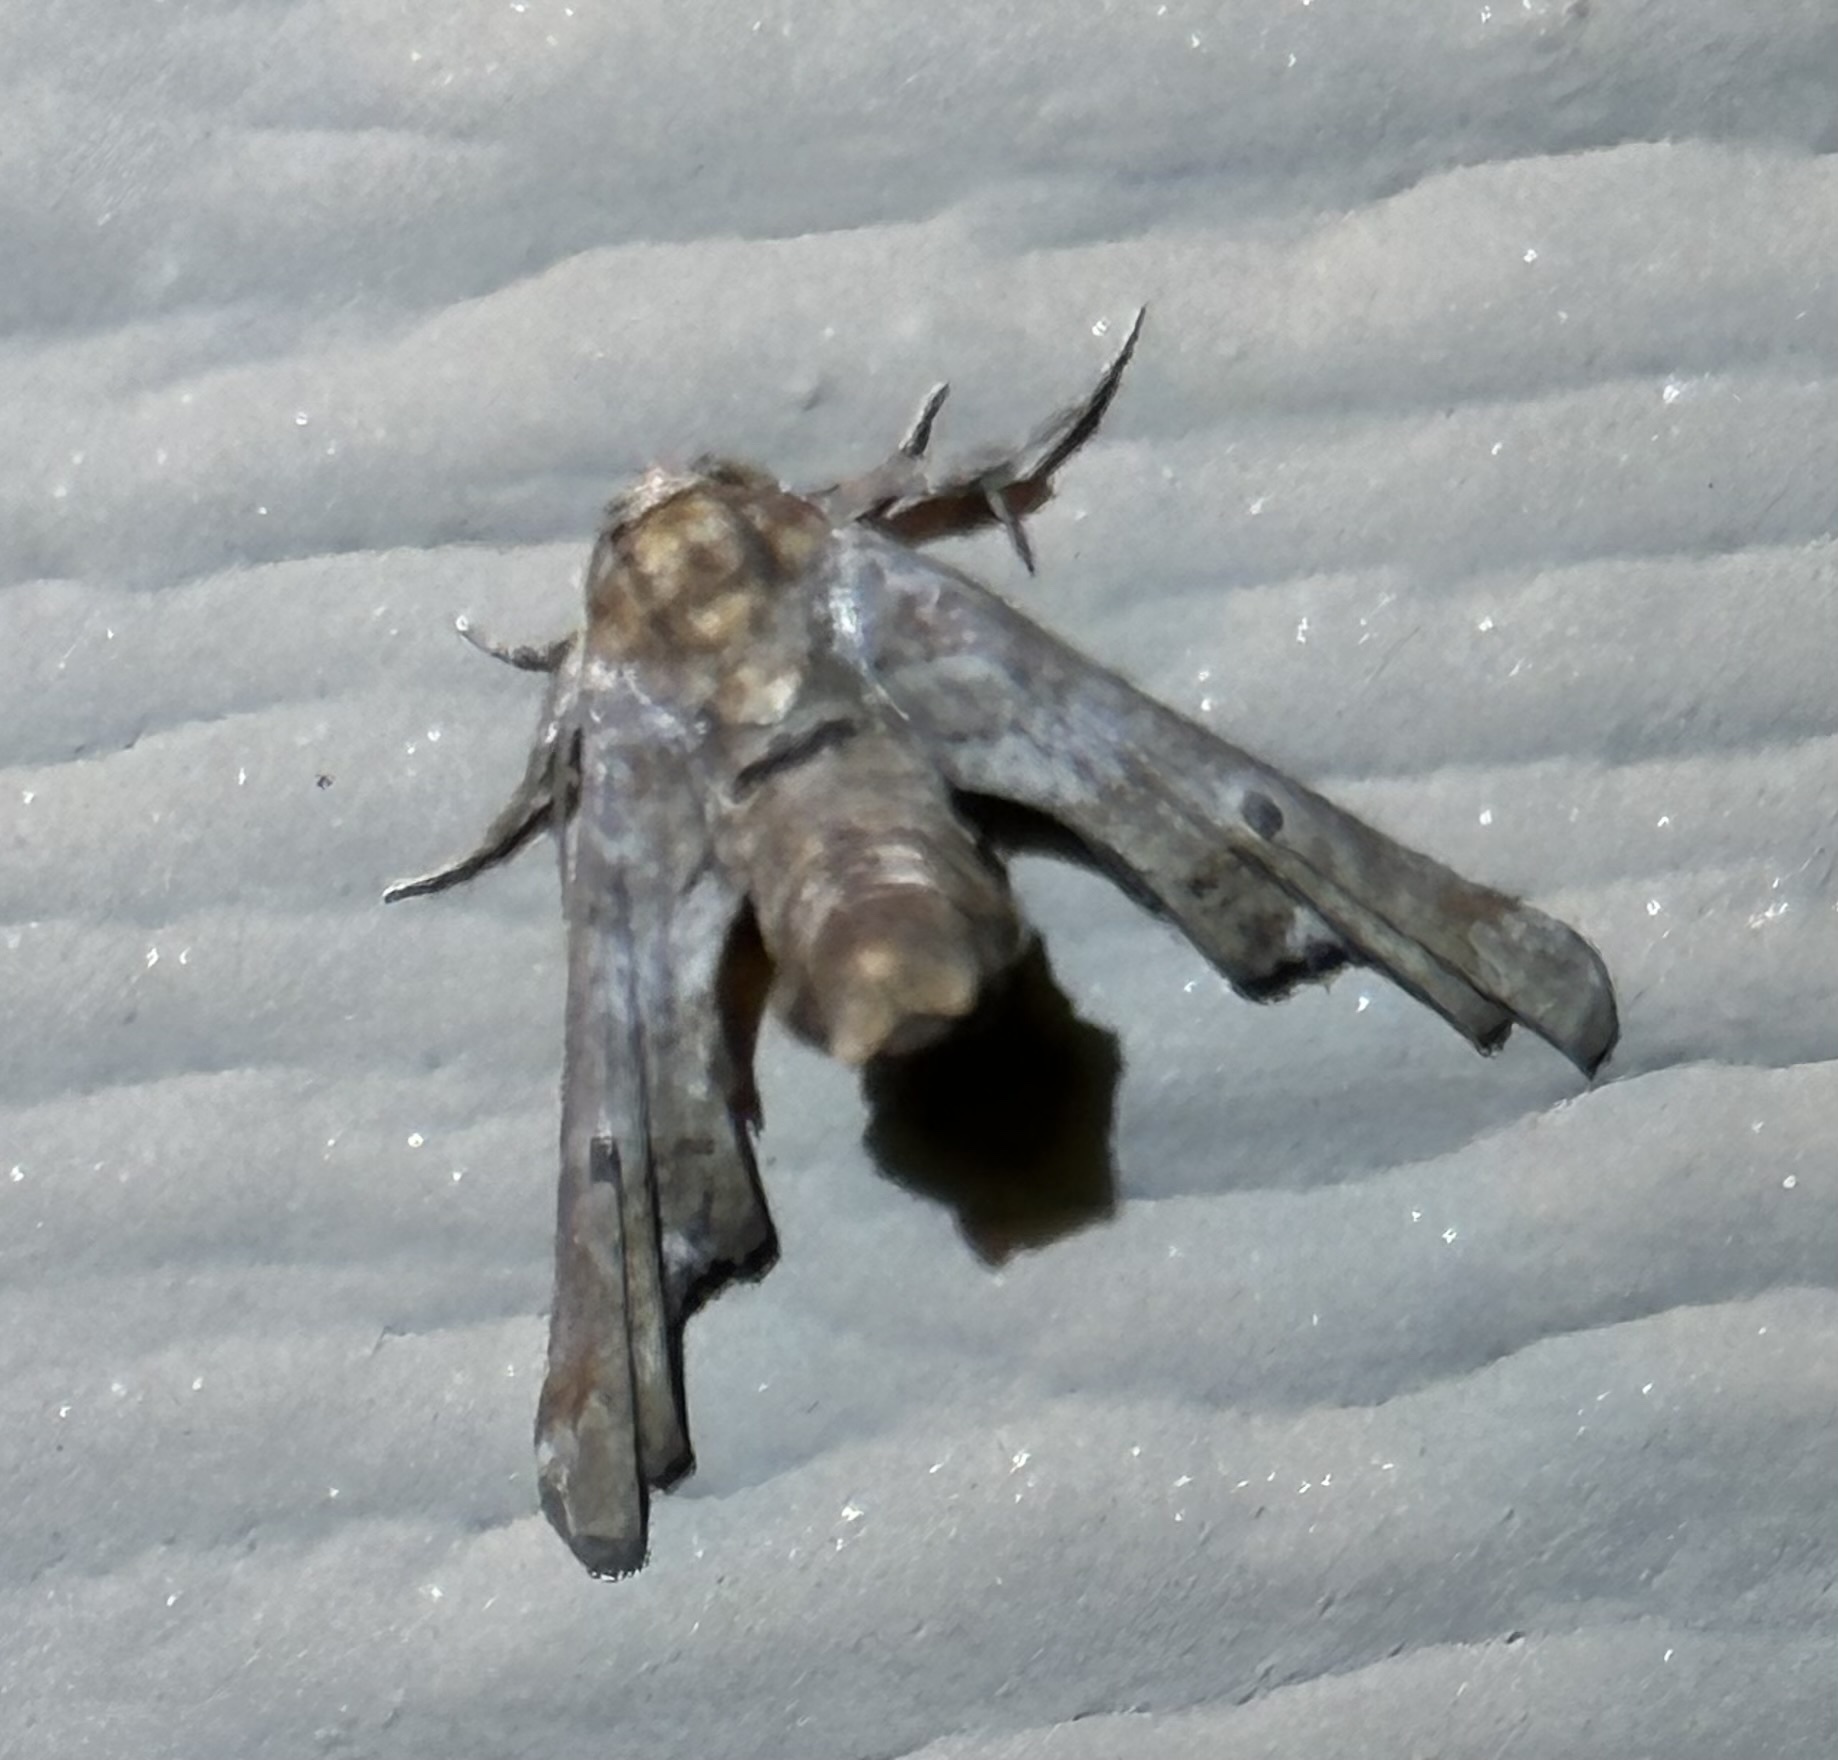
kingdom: Animalia
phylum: Arthropoda
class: Insecta
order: Lepidoptera
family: Euteliidae
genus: Marathyssa
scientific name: Marathyssa inficita
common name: Dark marathyssa moth
